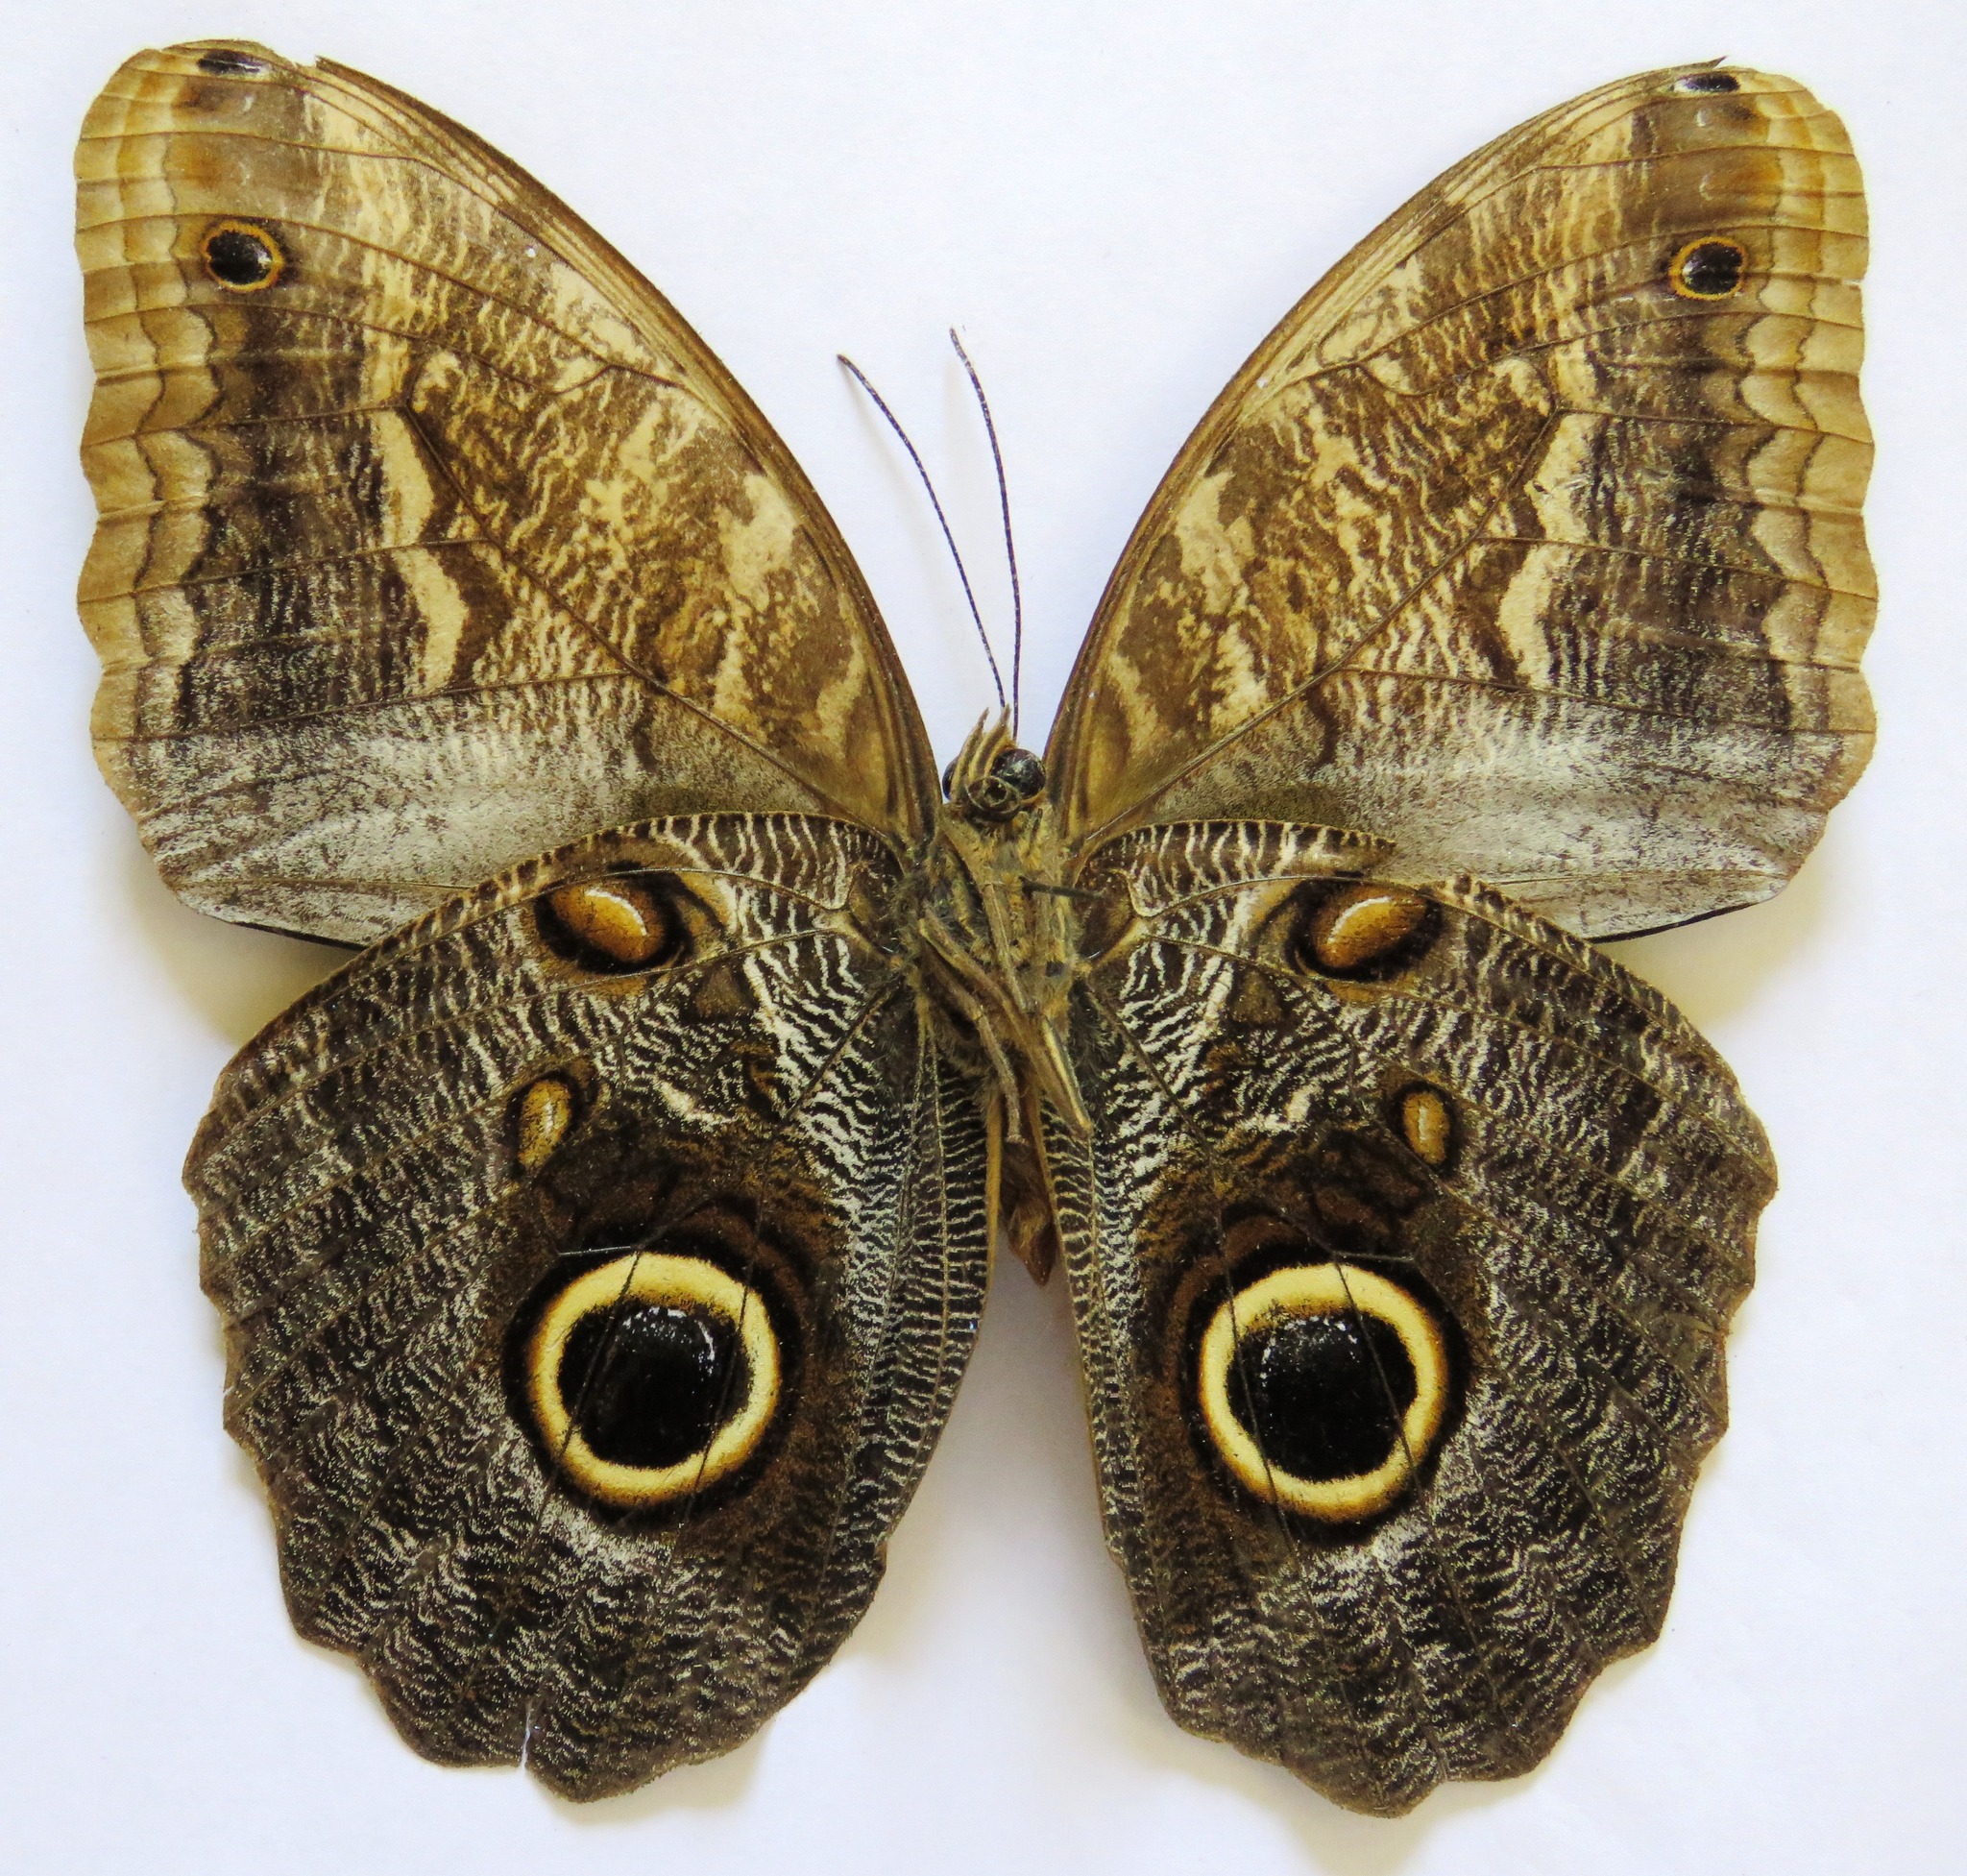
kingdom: Animalia
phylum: Arthropoda
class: Insecta
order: Lepidoptera
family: Nymphalidae
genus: Caligo
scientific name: Caligo telamonius
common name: Pale owl-butterfly
